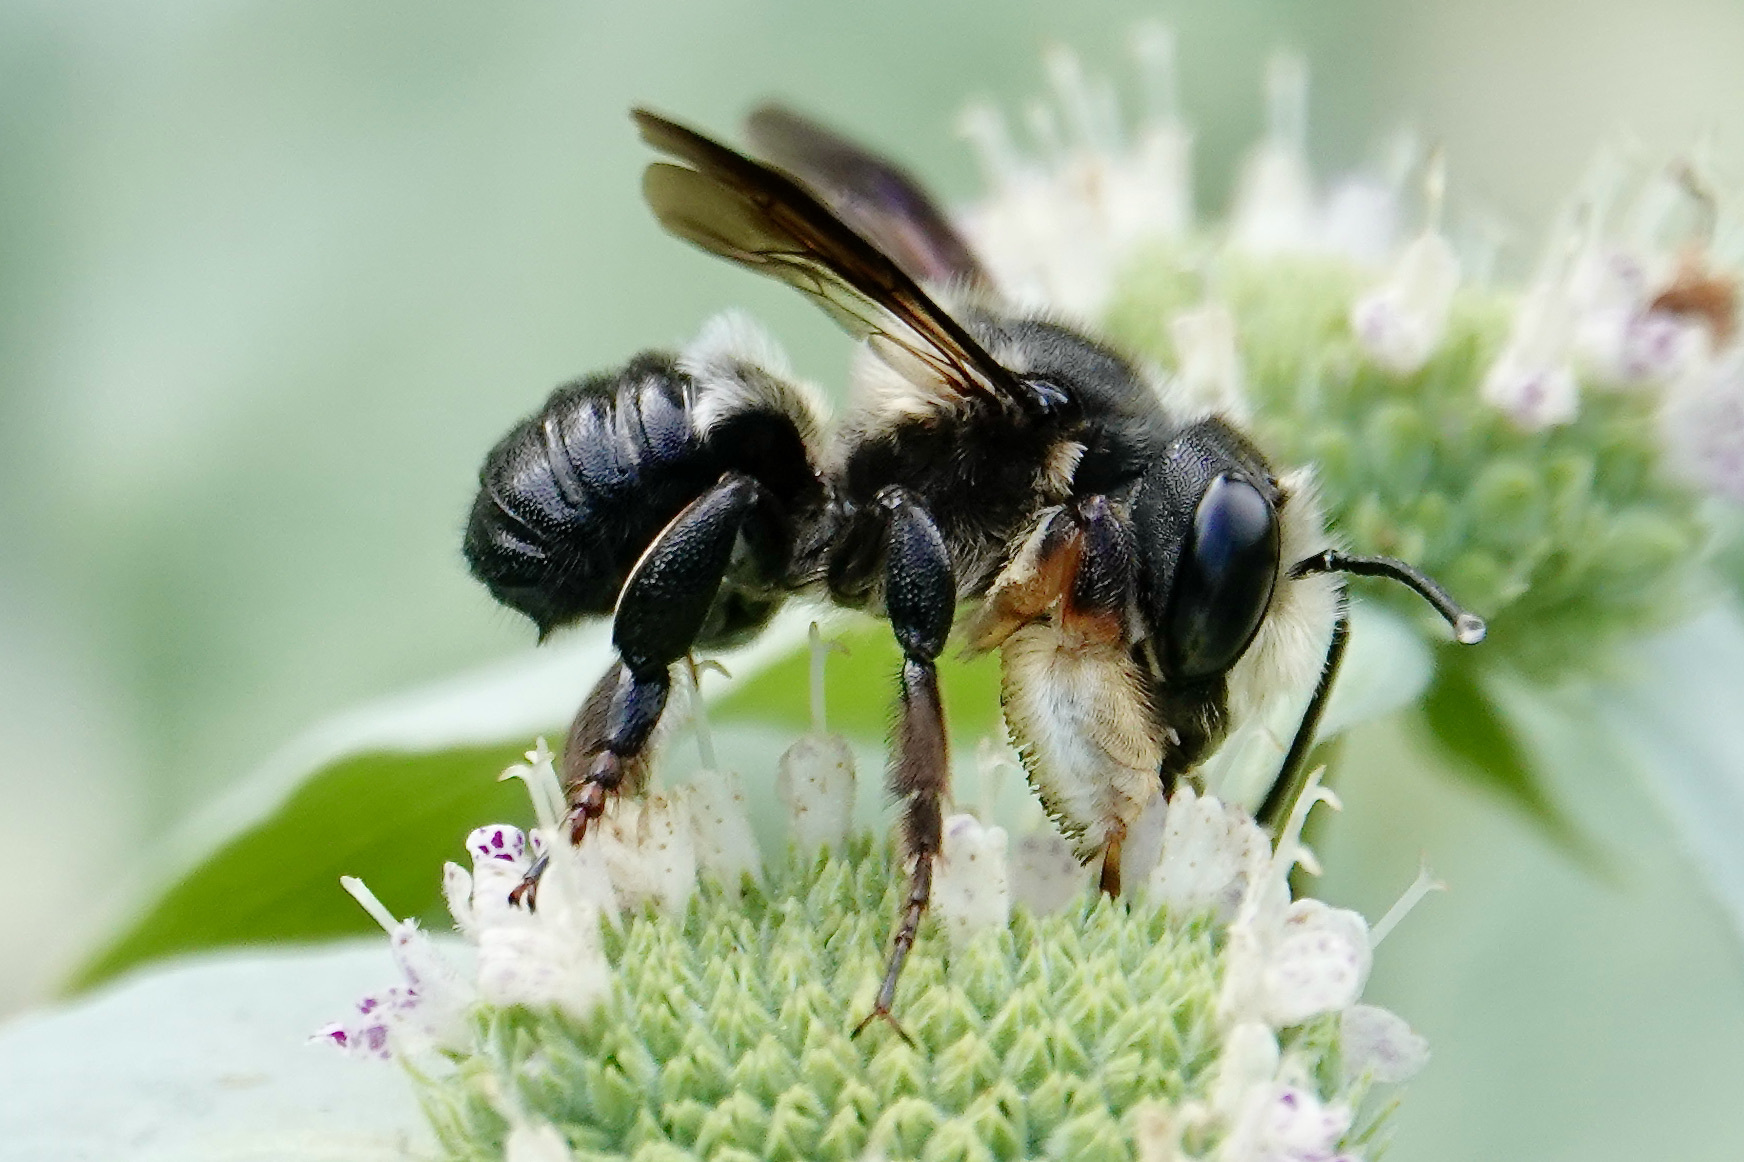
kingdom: Animalia
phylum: Arthropoda
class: Insecta
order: Hymenoptera
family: Megachilidae
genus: Megachile
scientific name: Megachile xylocopoides
